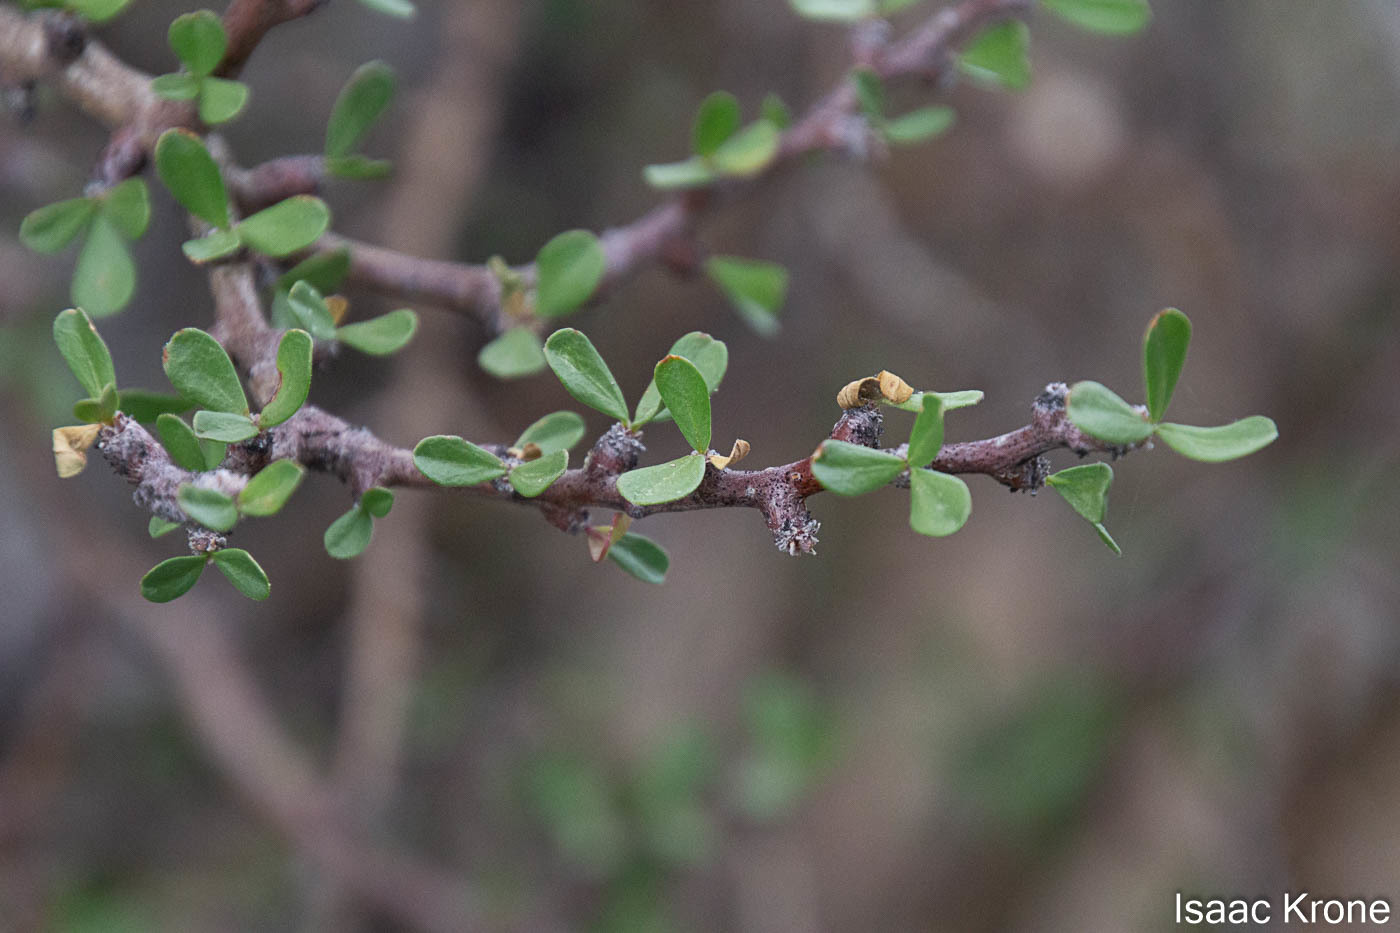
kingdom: Plantae
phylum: Tracheophyta
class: Magnoliopsida
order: Malpighiales
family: Euphorbiaceae
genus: Jatropha
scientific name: Jatropha cuneata
